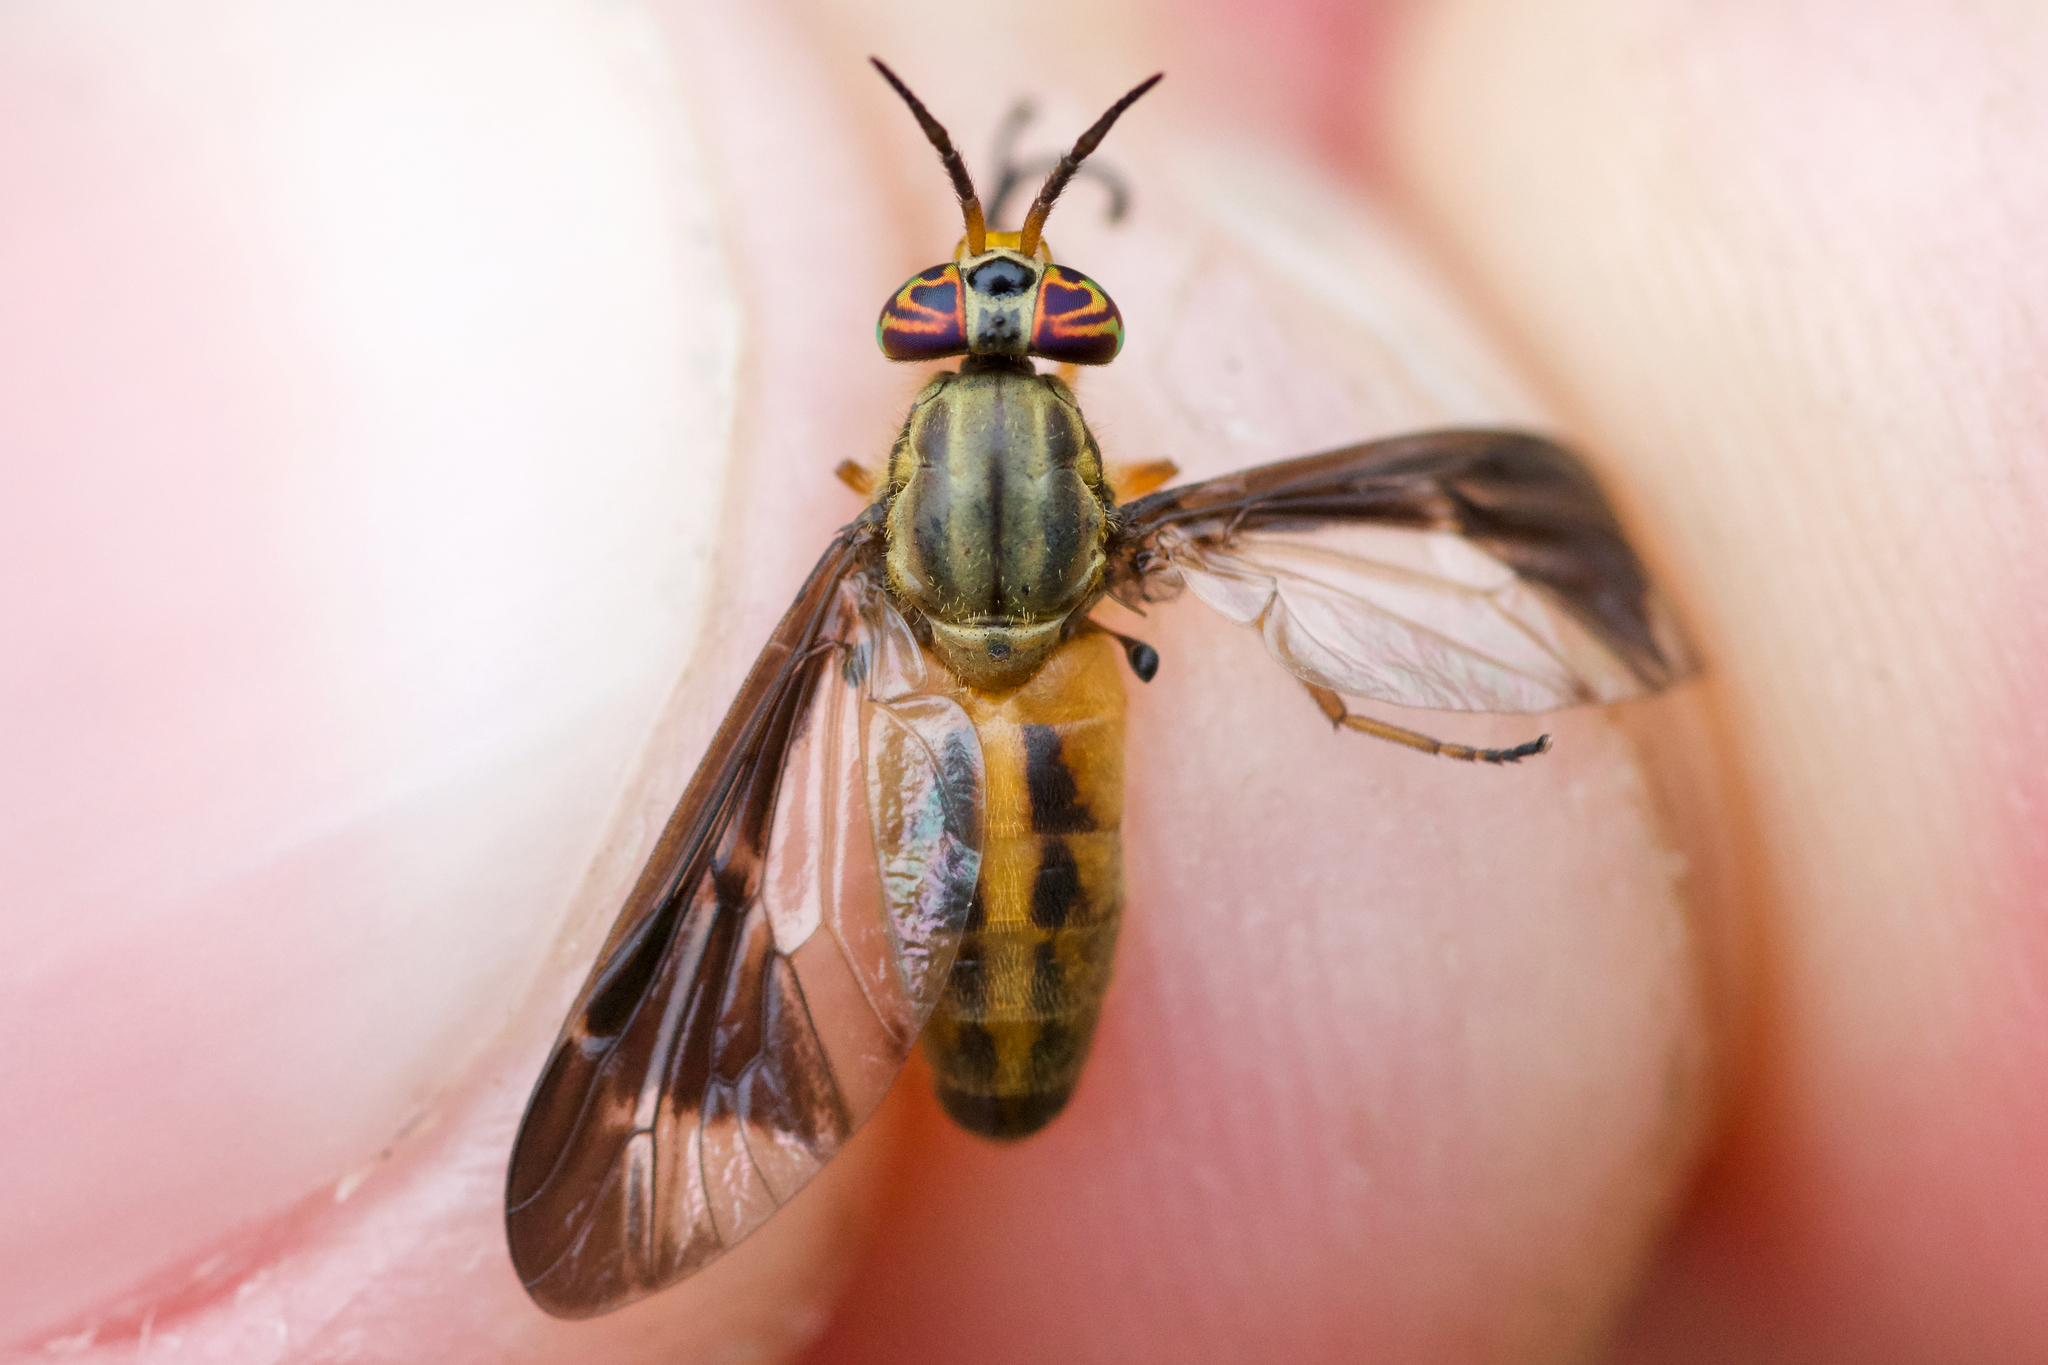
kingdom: Animalia
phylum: Arthropoda
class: Insecta
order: Diptera
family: Tabanidae
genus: Chrysops
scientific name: Chrysops macquarti
